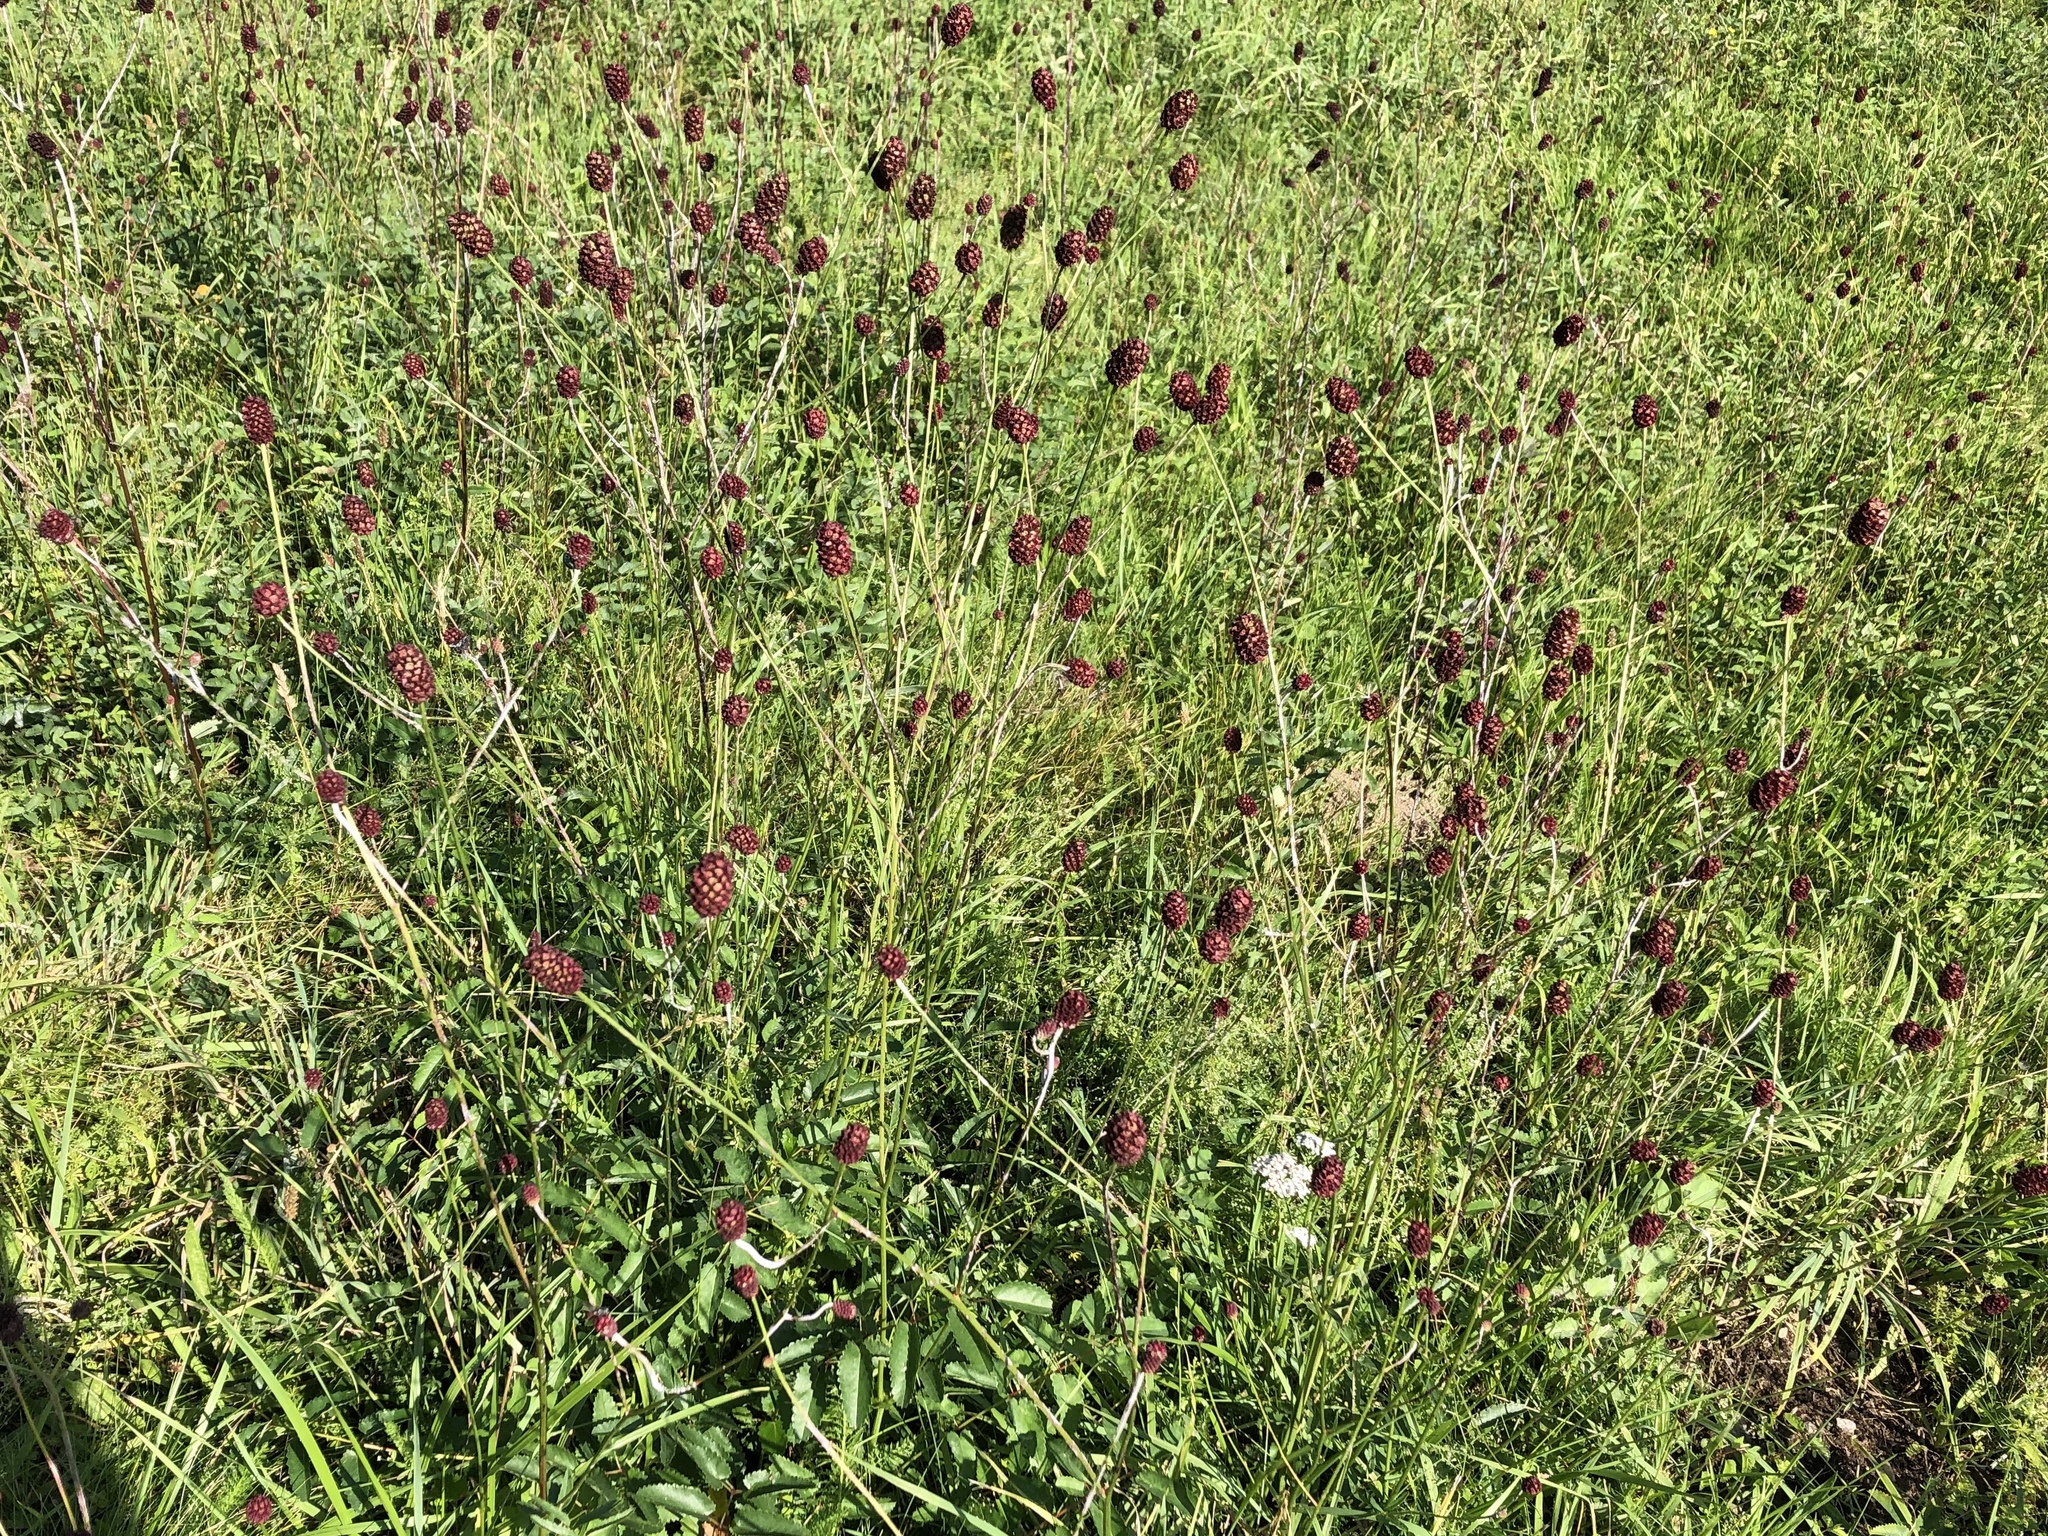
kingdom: Plantae
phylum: Tracheophyta
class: Magnoliopsida
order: Rosales
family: Rosaceae
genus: Sanguisorba
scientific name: Sanguisorba officinalis
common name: Great burnet
